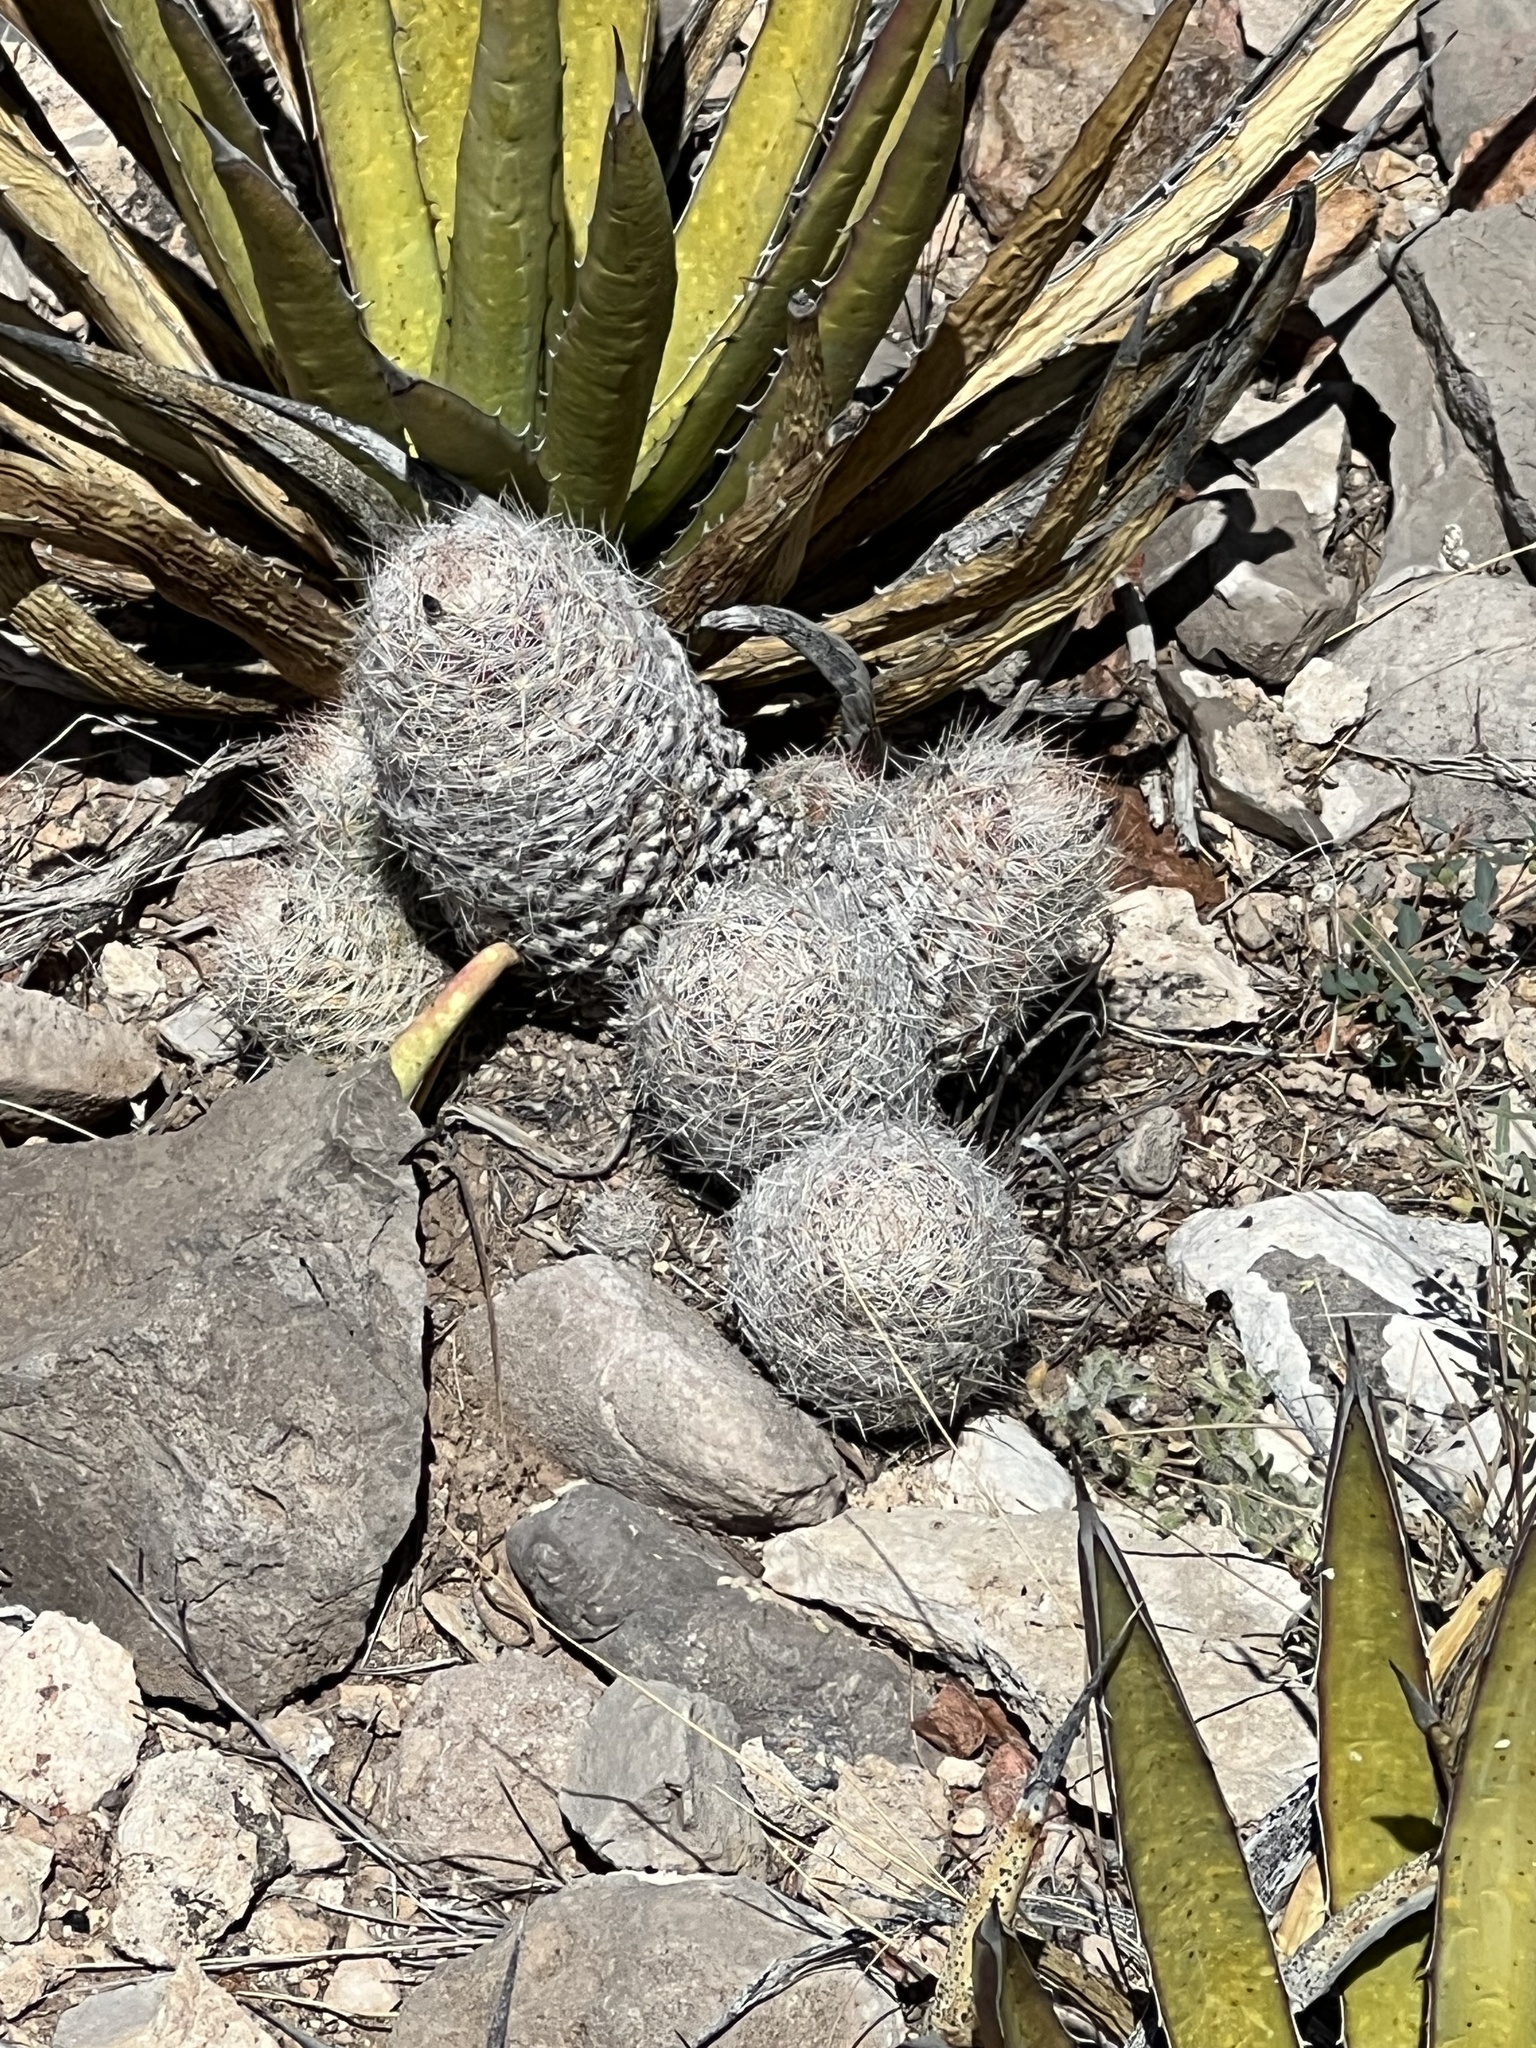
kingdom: Plantae
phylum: Tracheophyta
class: Magnoliopsida
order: Caryophyllales
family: Cactaceae
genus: Pelecyphora
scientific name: Pelecyphora tuberculosa
